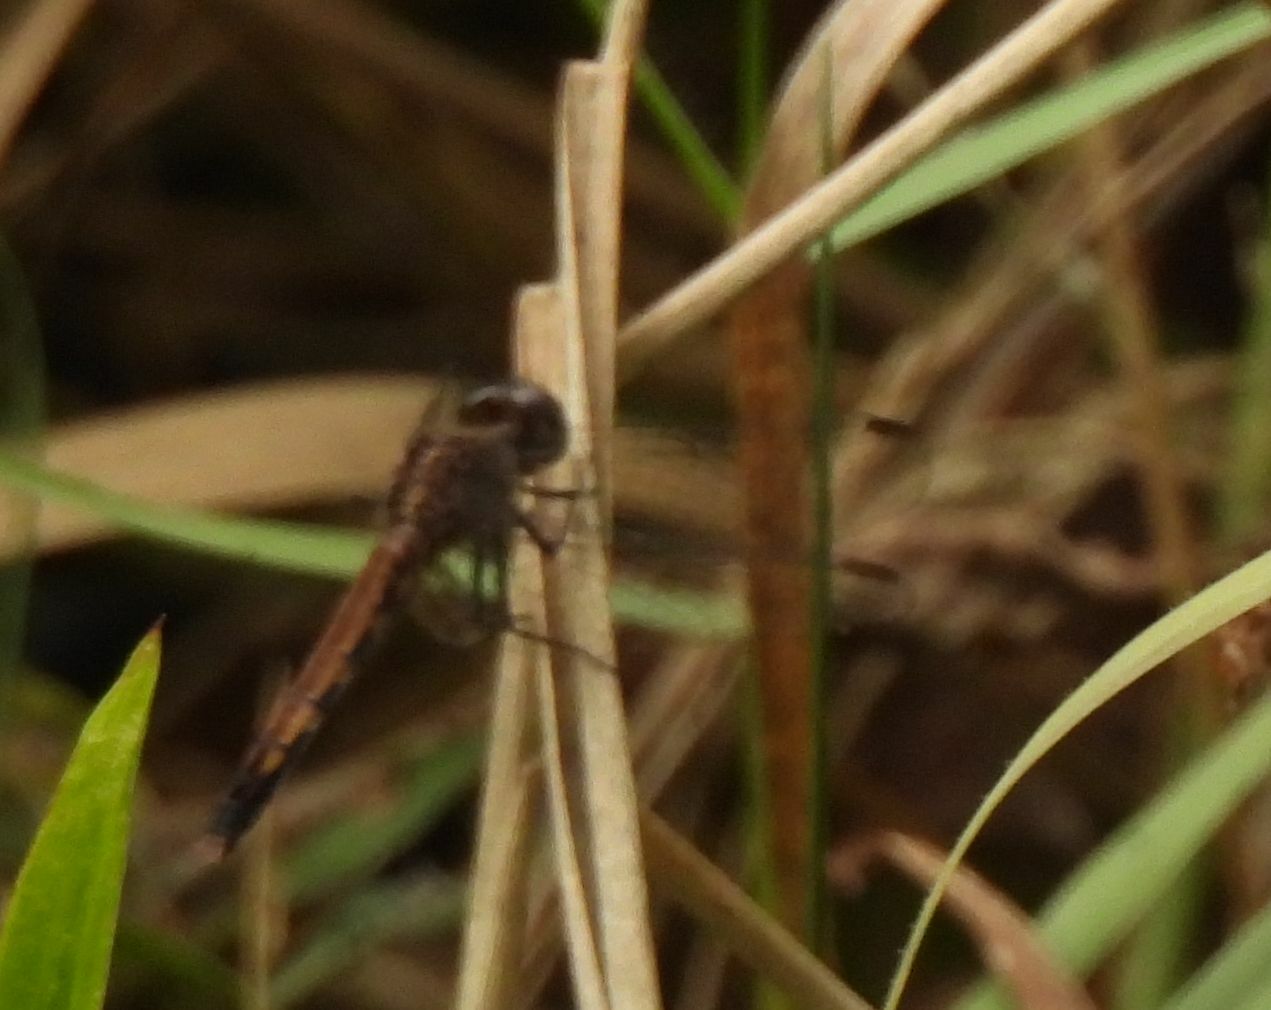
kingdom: Animalia
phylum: Arthropoda
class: Insecta
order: Odonata
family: Libellulidae
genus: Erythrodiplax
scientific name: Erythrodiplax minuscula
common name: Little blue dragonlet
